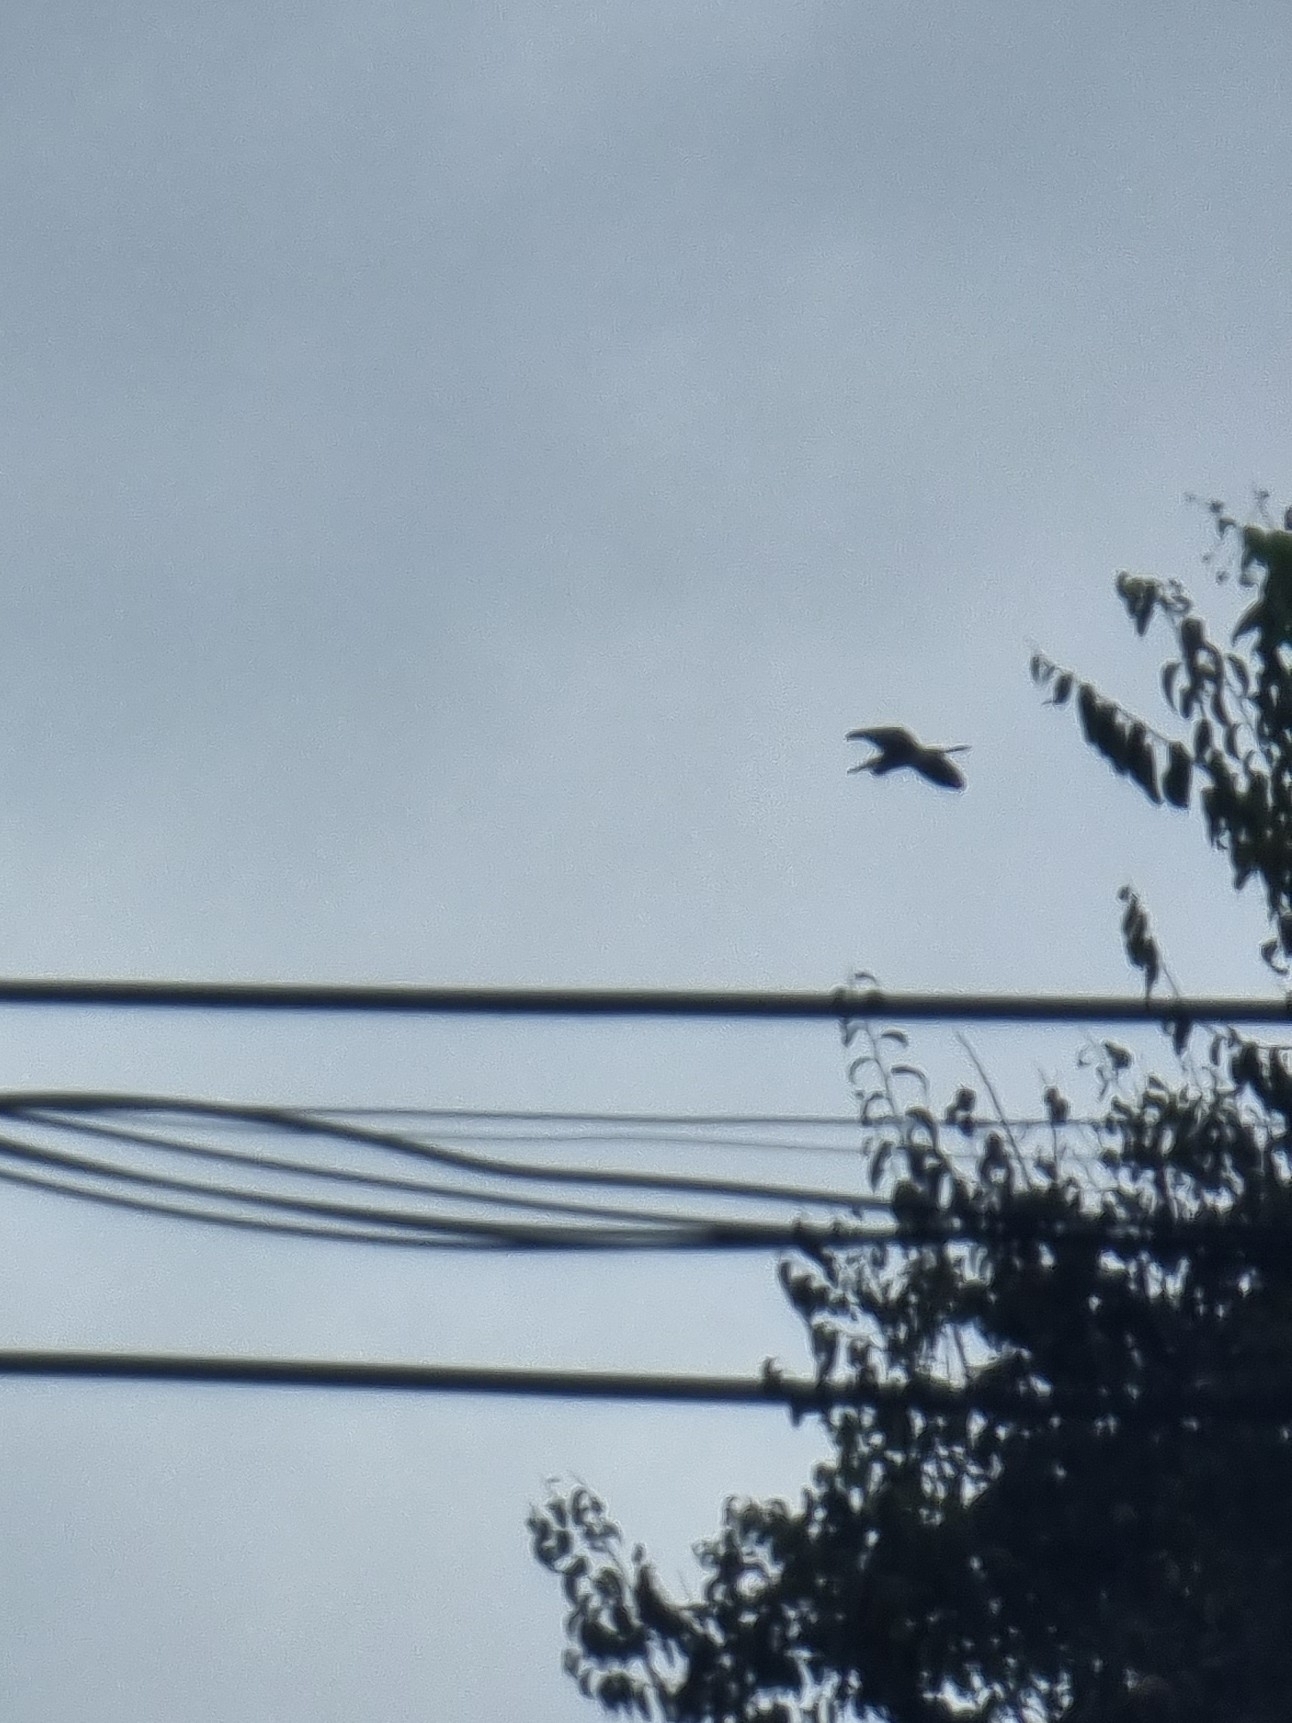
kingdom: Animalia
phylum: Chordata
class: Aves
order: Pelecaniformes
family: Ardeidae
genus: Ardea
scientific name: Ardea cinerea
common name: Grey heron
